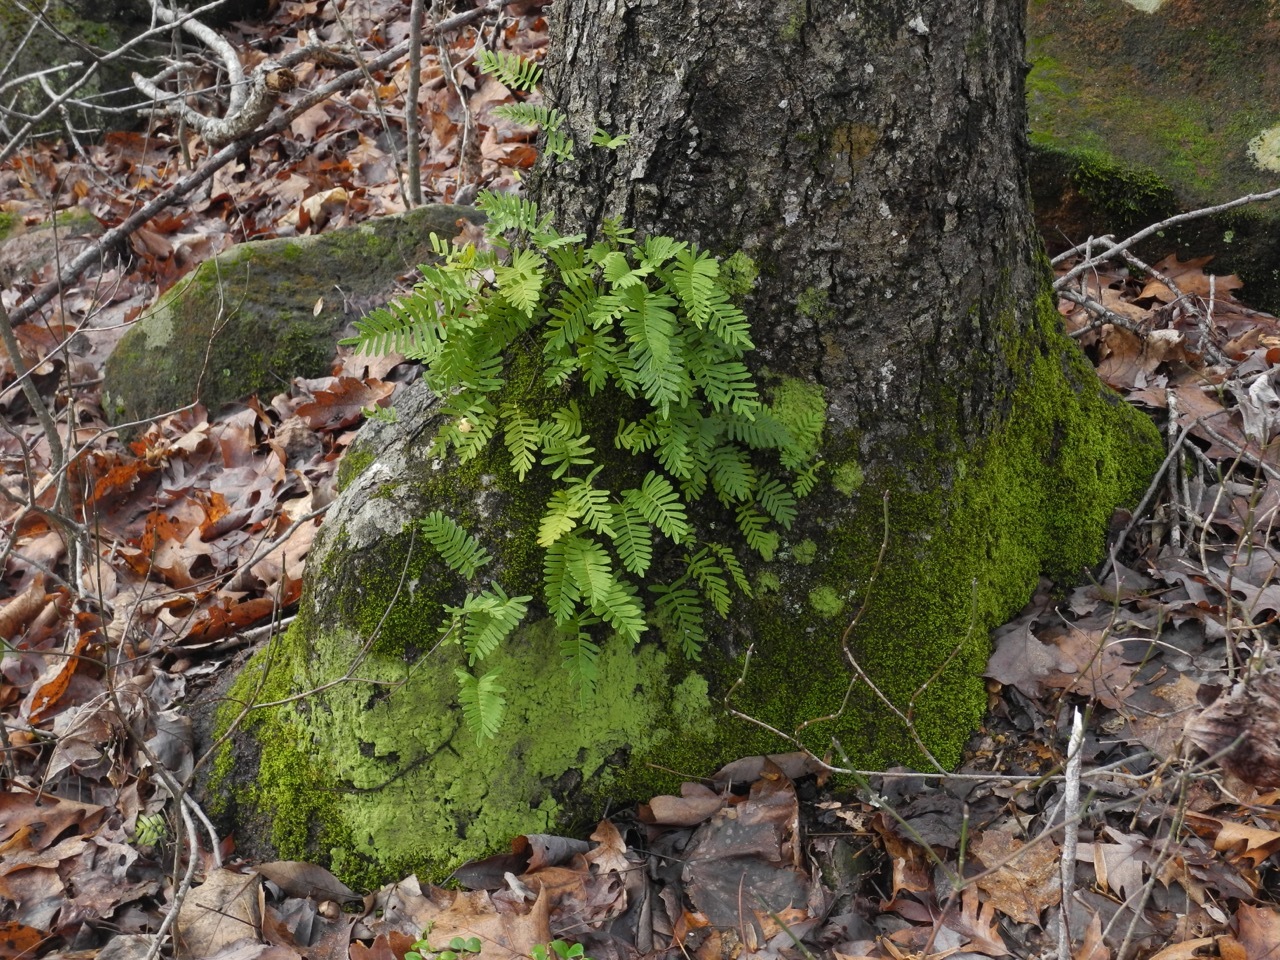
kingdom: Plantae
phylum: Tracheophyta
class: Polypodiopsida
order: Polypodiales
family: Polypodiaceae
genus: Pleopeltis
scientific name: Pleopeltis michauxiana
